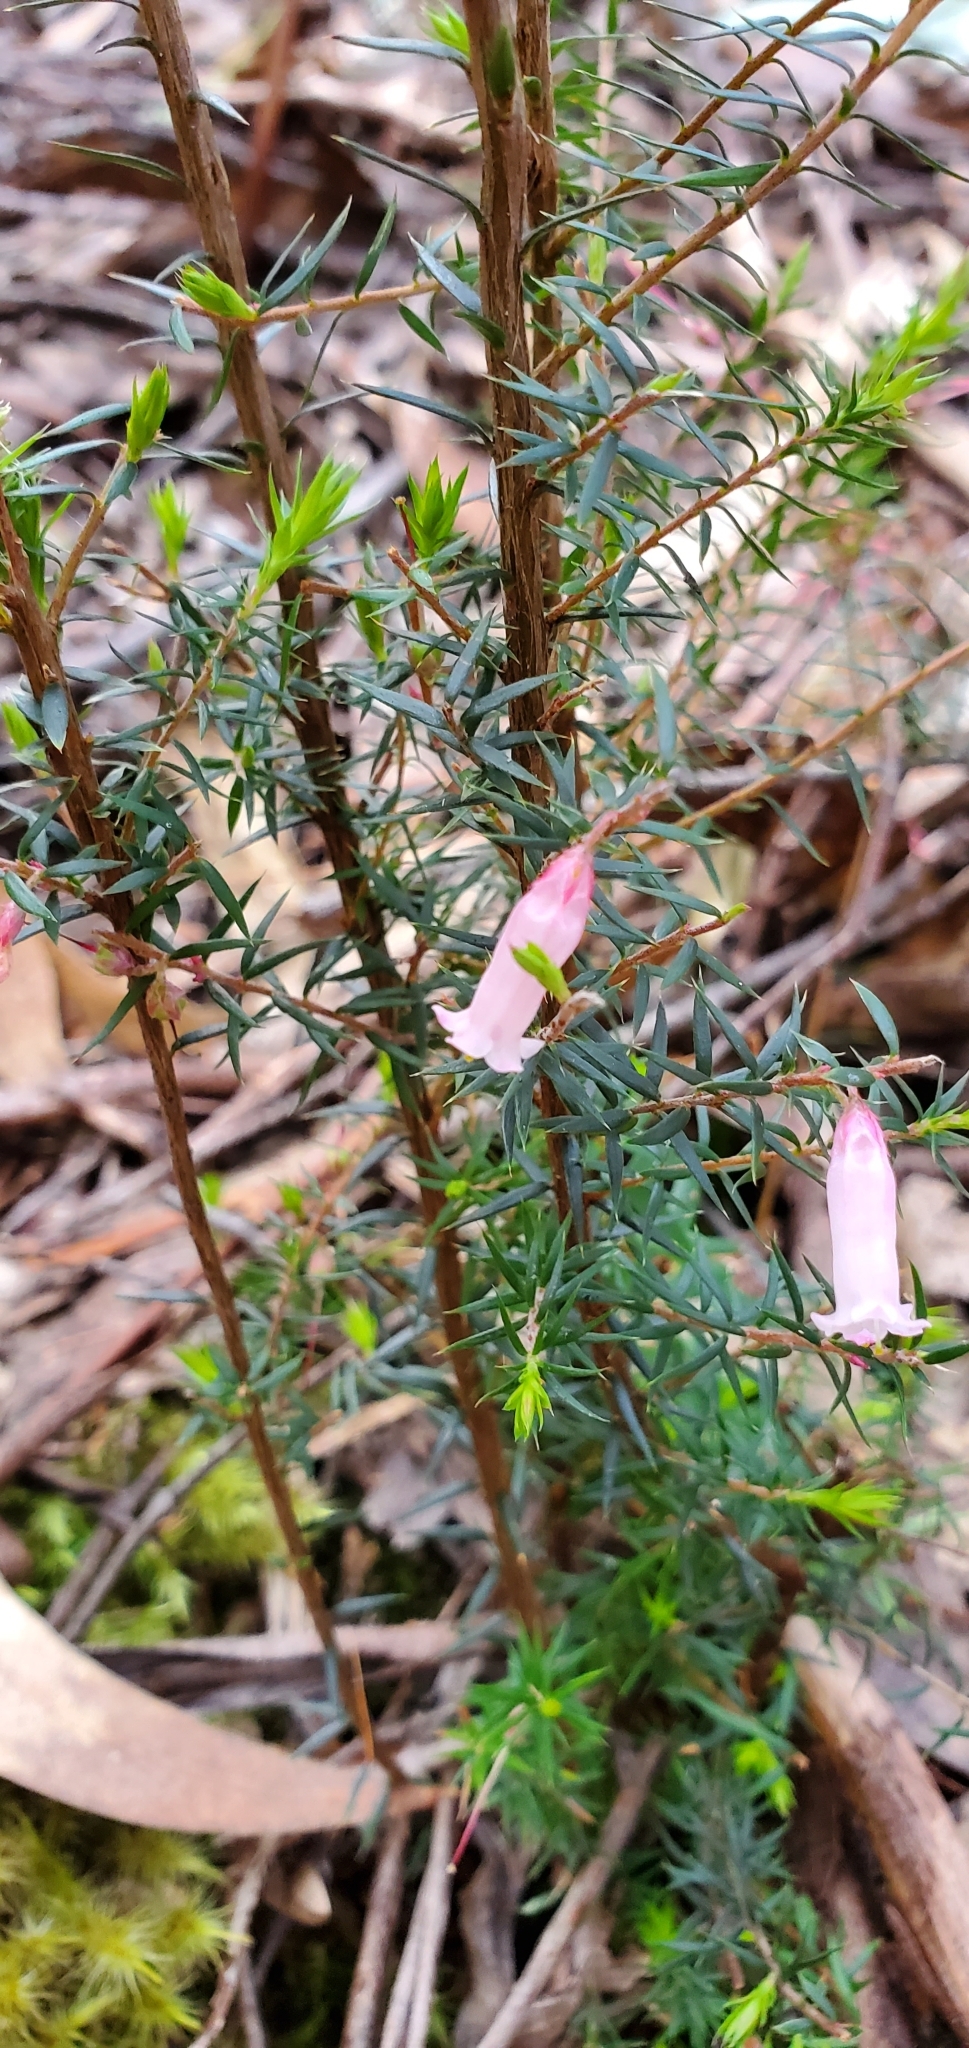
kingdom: Plantae
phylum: Tracheophyta
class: Magnoliopsida
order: Ericales
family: Ericaceae
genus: Epacris
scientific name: Epacris impressa
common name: Common-heath
